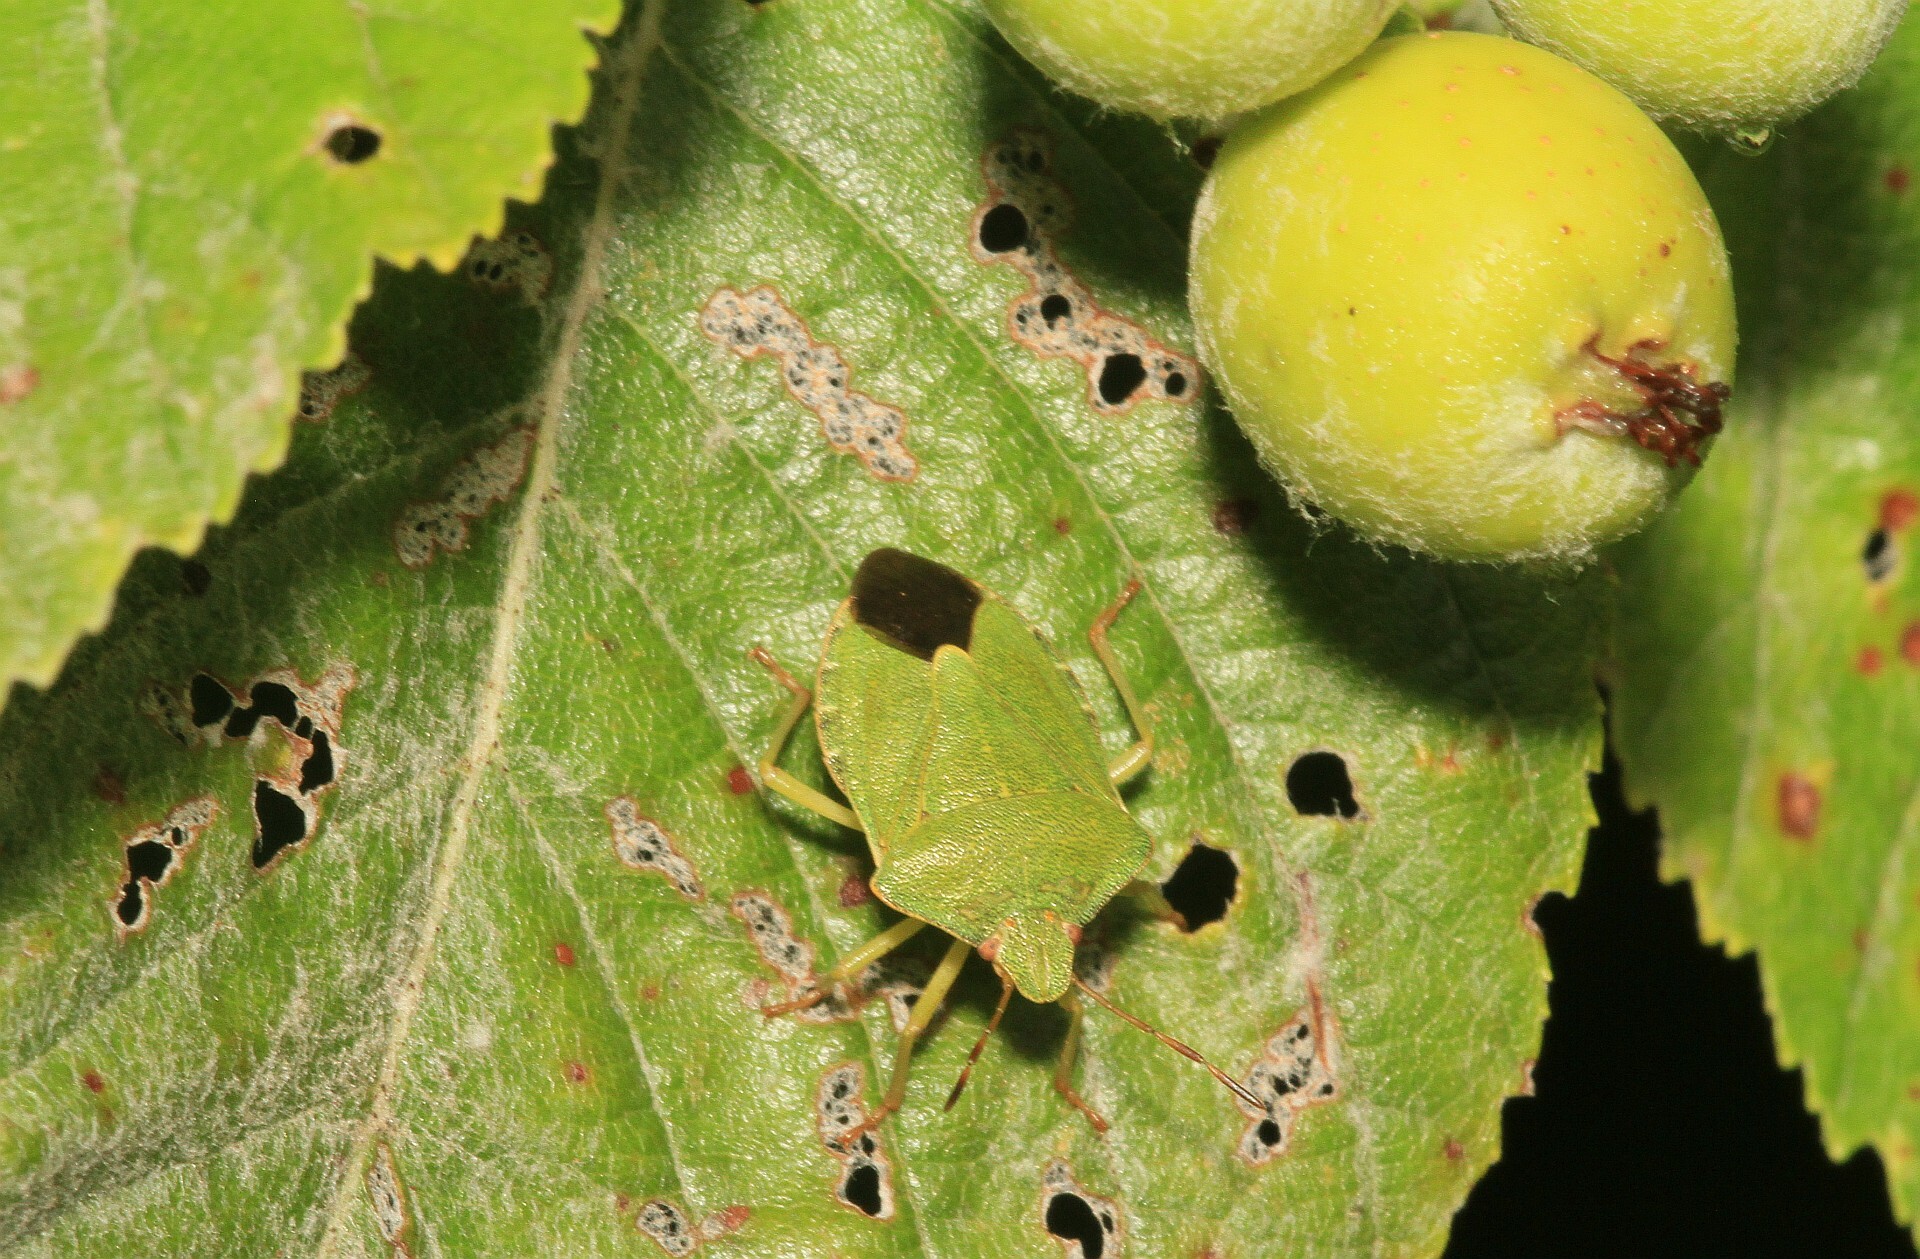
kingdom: Animalia
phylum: Arthropoda
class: Insecta
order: Hemiptera
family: Pentatomidae
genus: Palomena
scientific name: Palomena prasina
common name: Green shieldbug
